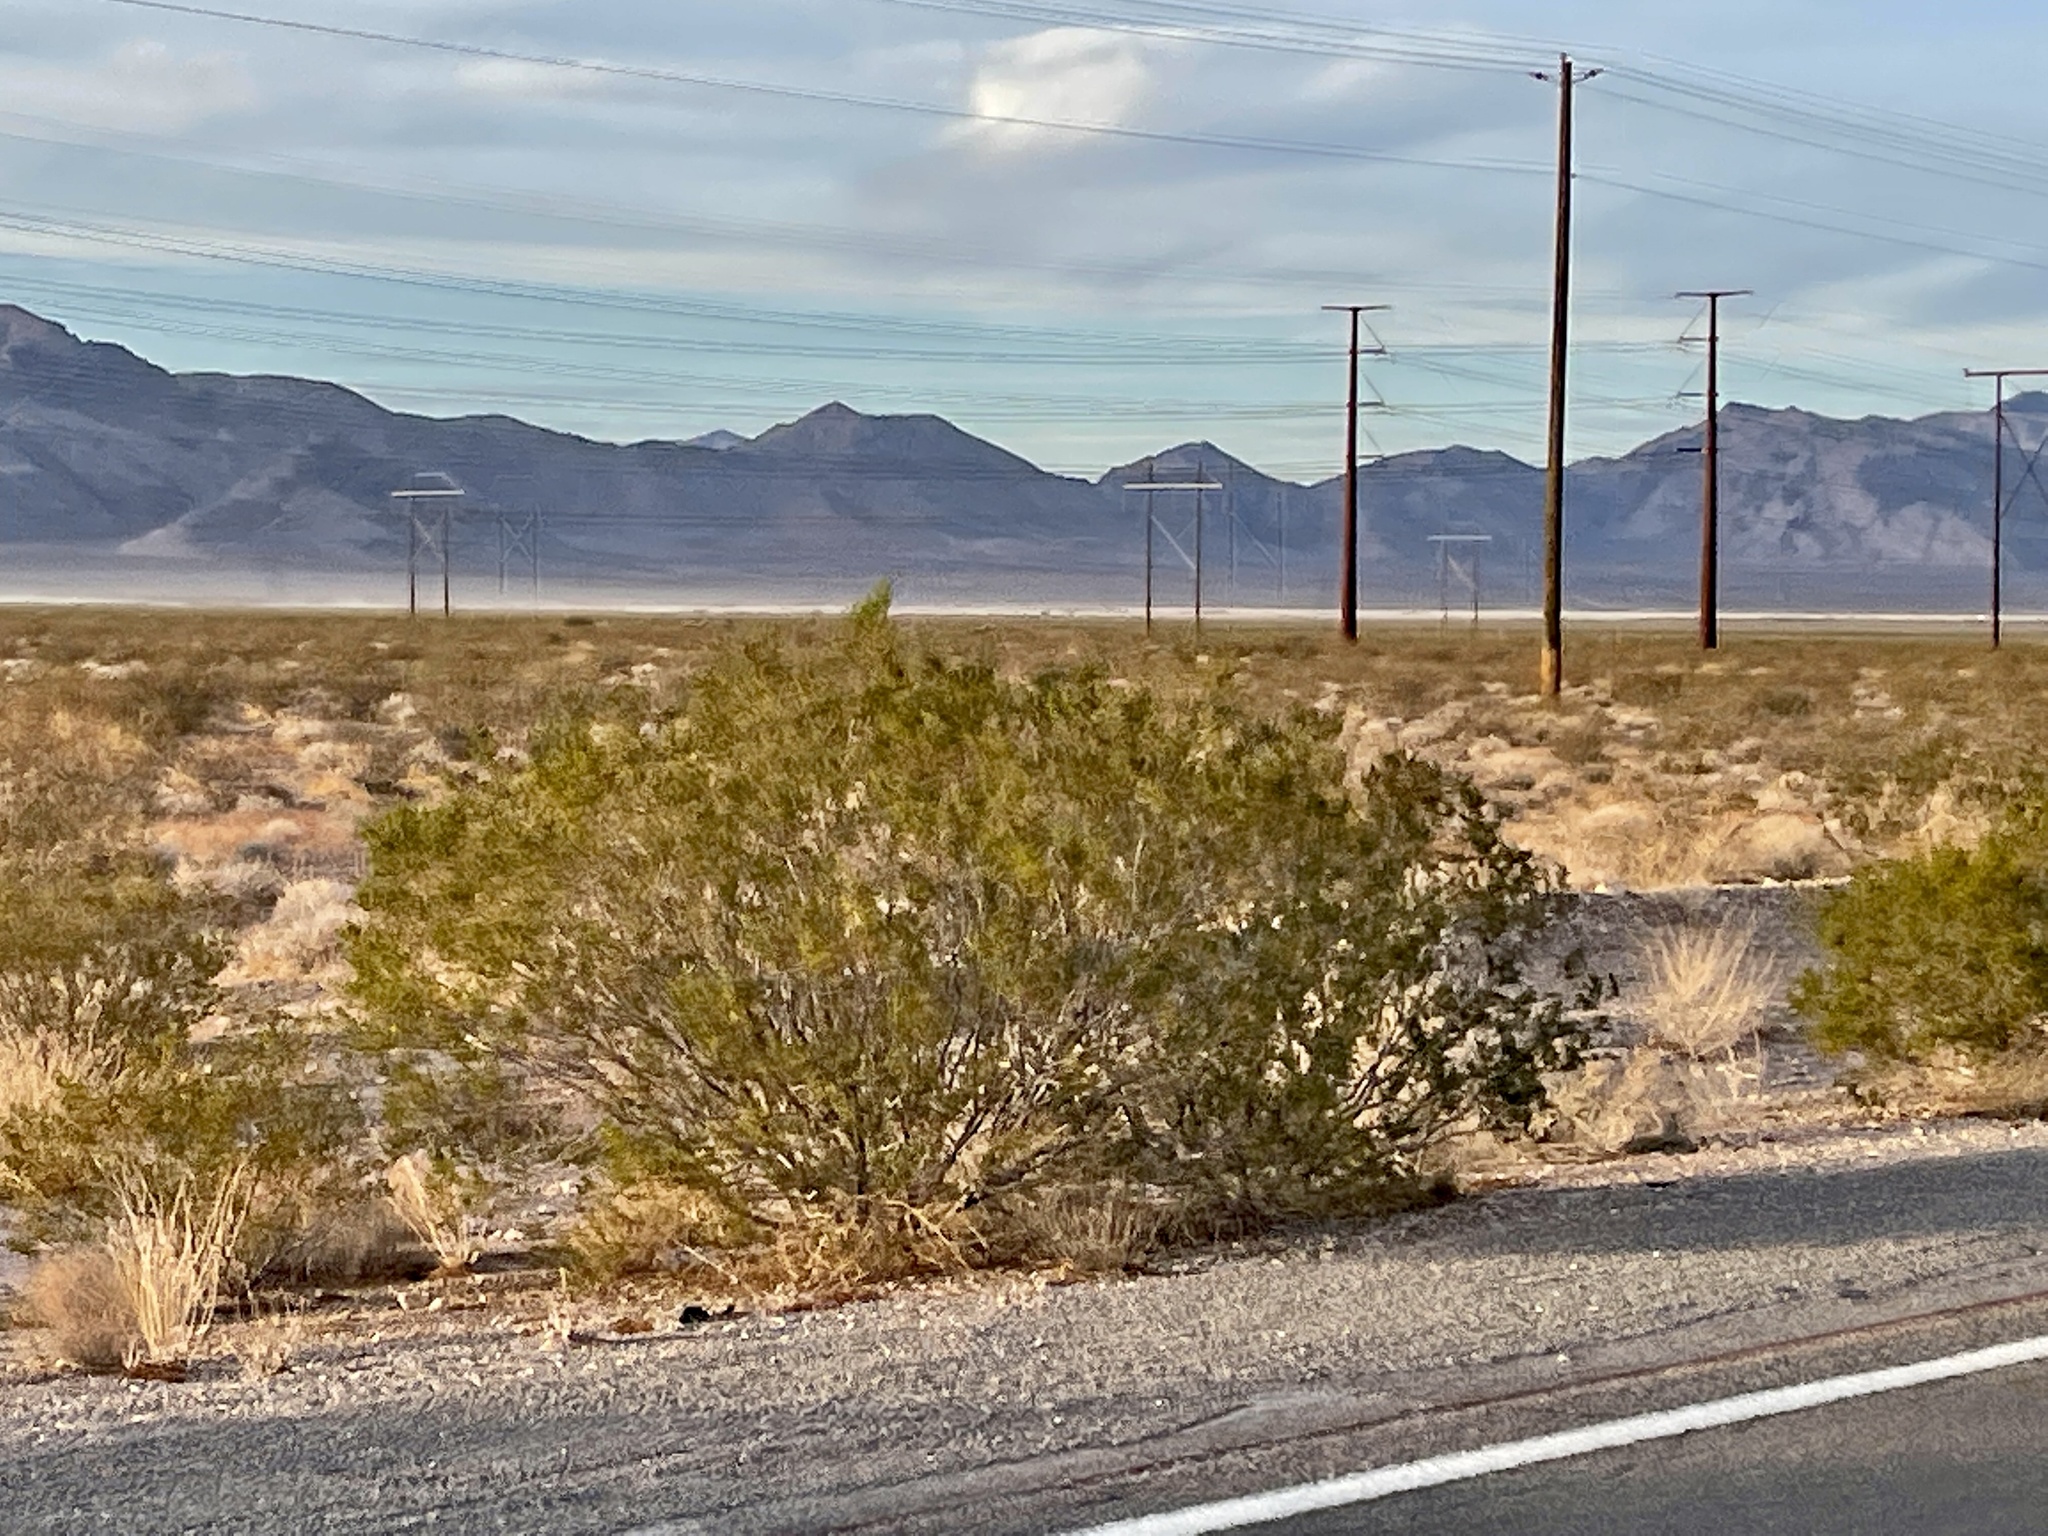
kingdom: Plantae
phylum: Tracheophyta
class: Magnoliopsida
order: Zygophyllales
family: Zygophyllaceae
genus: Larrea
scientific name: Larrea tridentata
